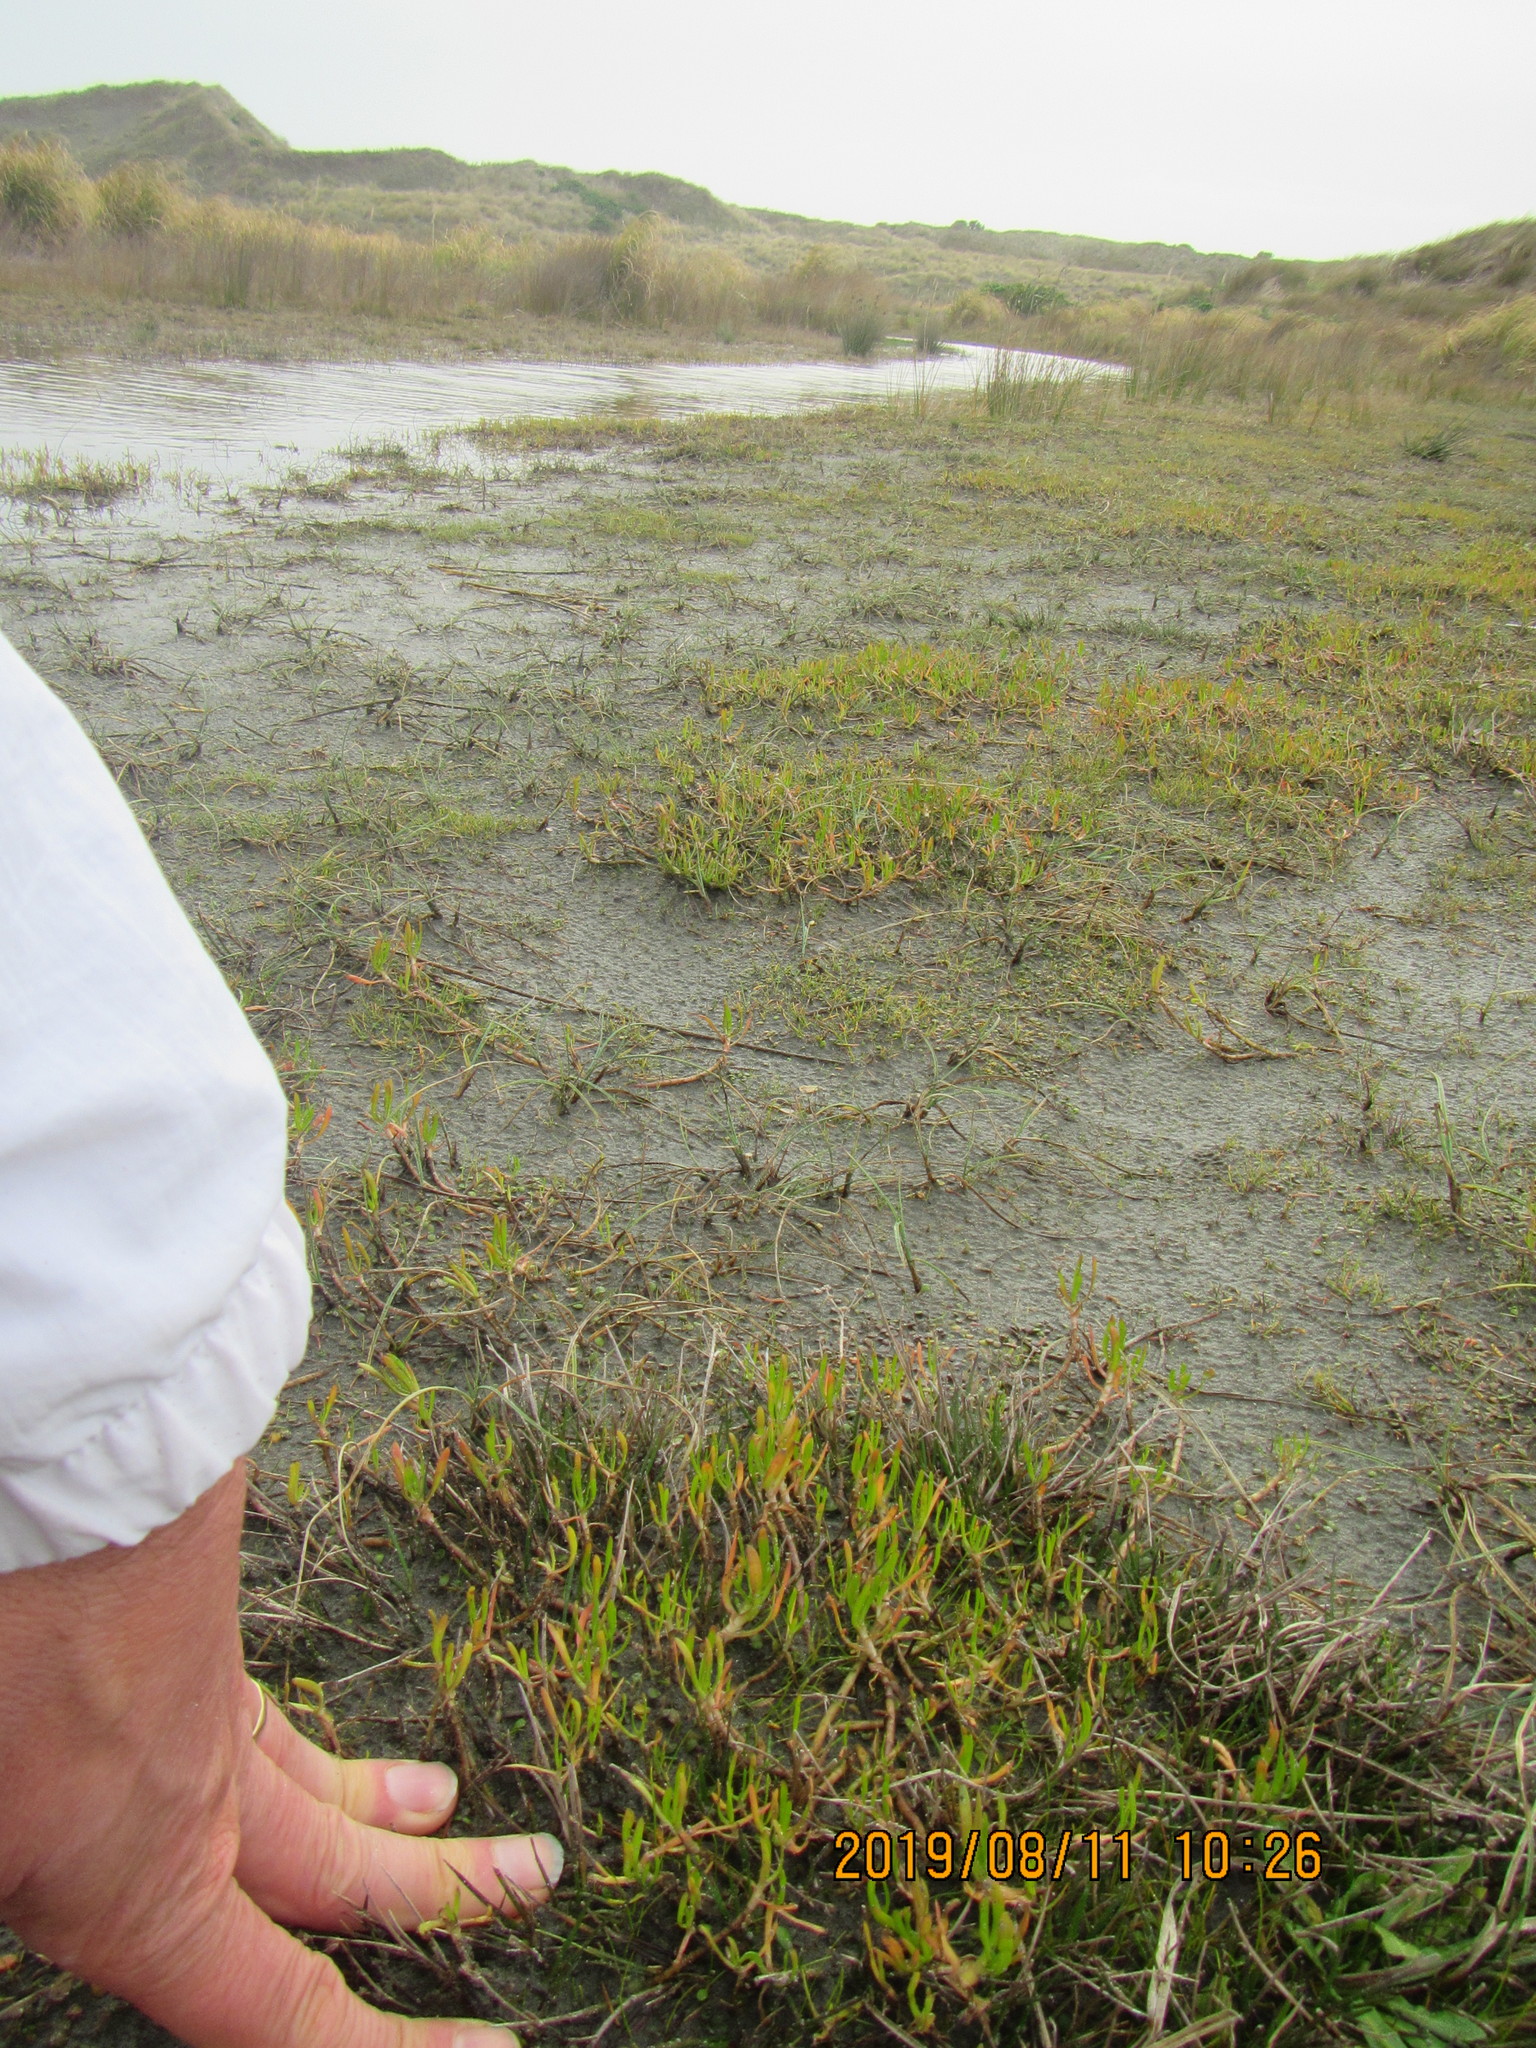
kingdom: Plantae
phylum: Tracheophyta
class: Magnoliopsida
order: Asterales
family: Asteraceae
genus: Cotula
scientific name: Cotula coronopifolia
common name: Buttonweed
